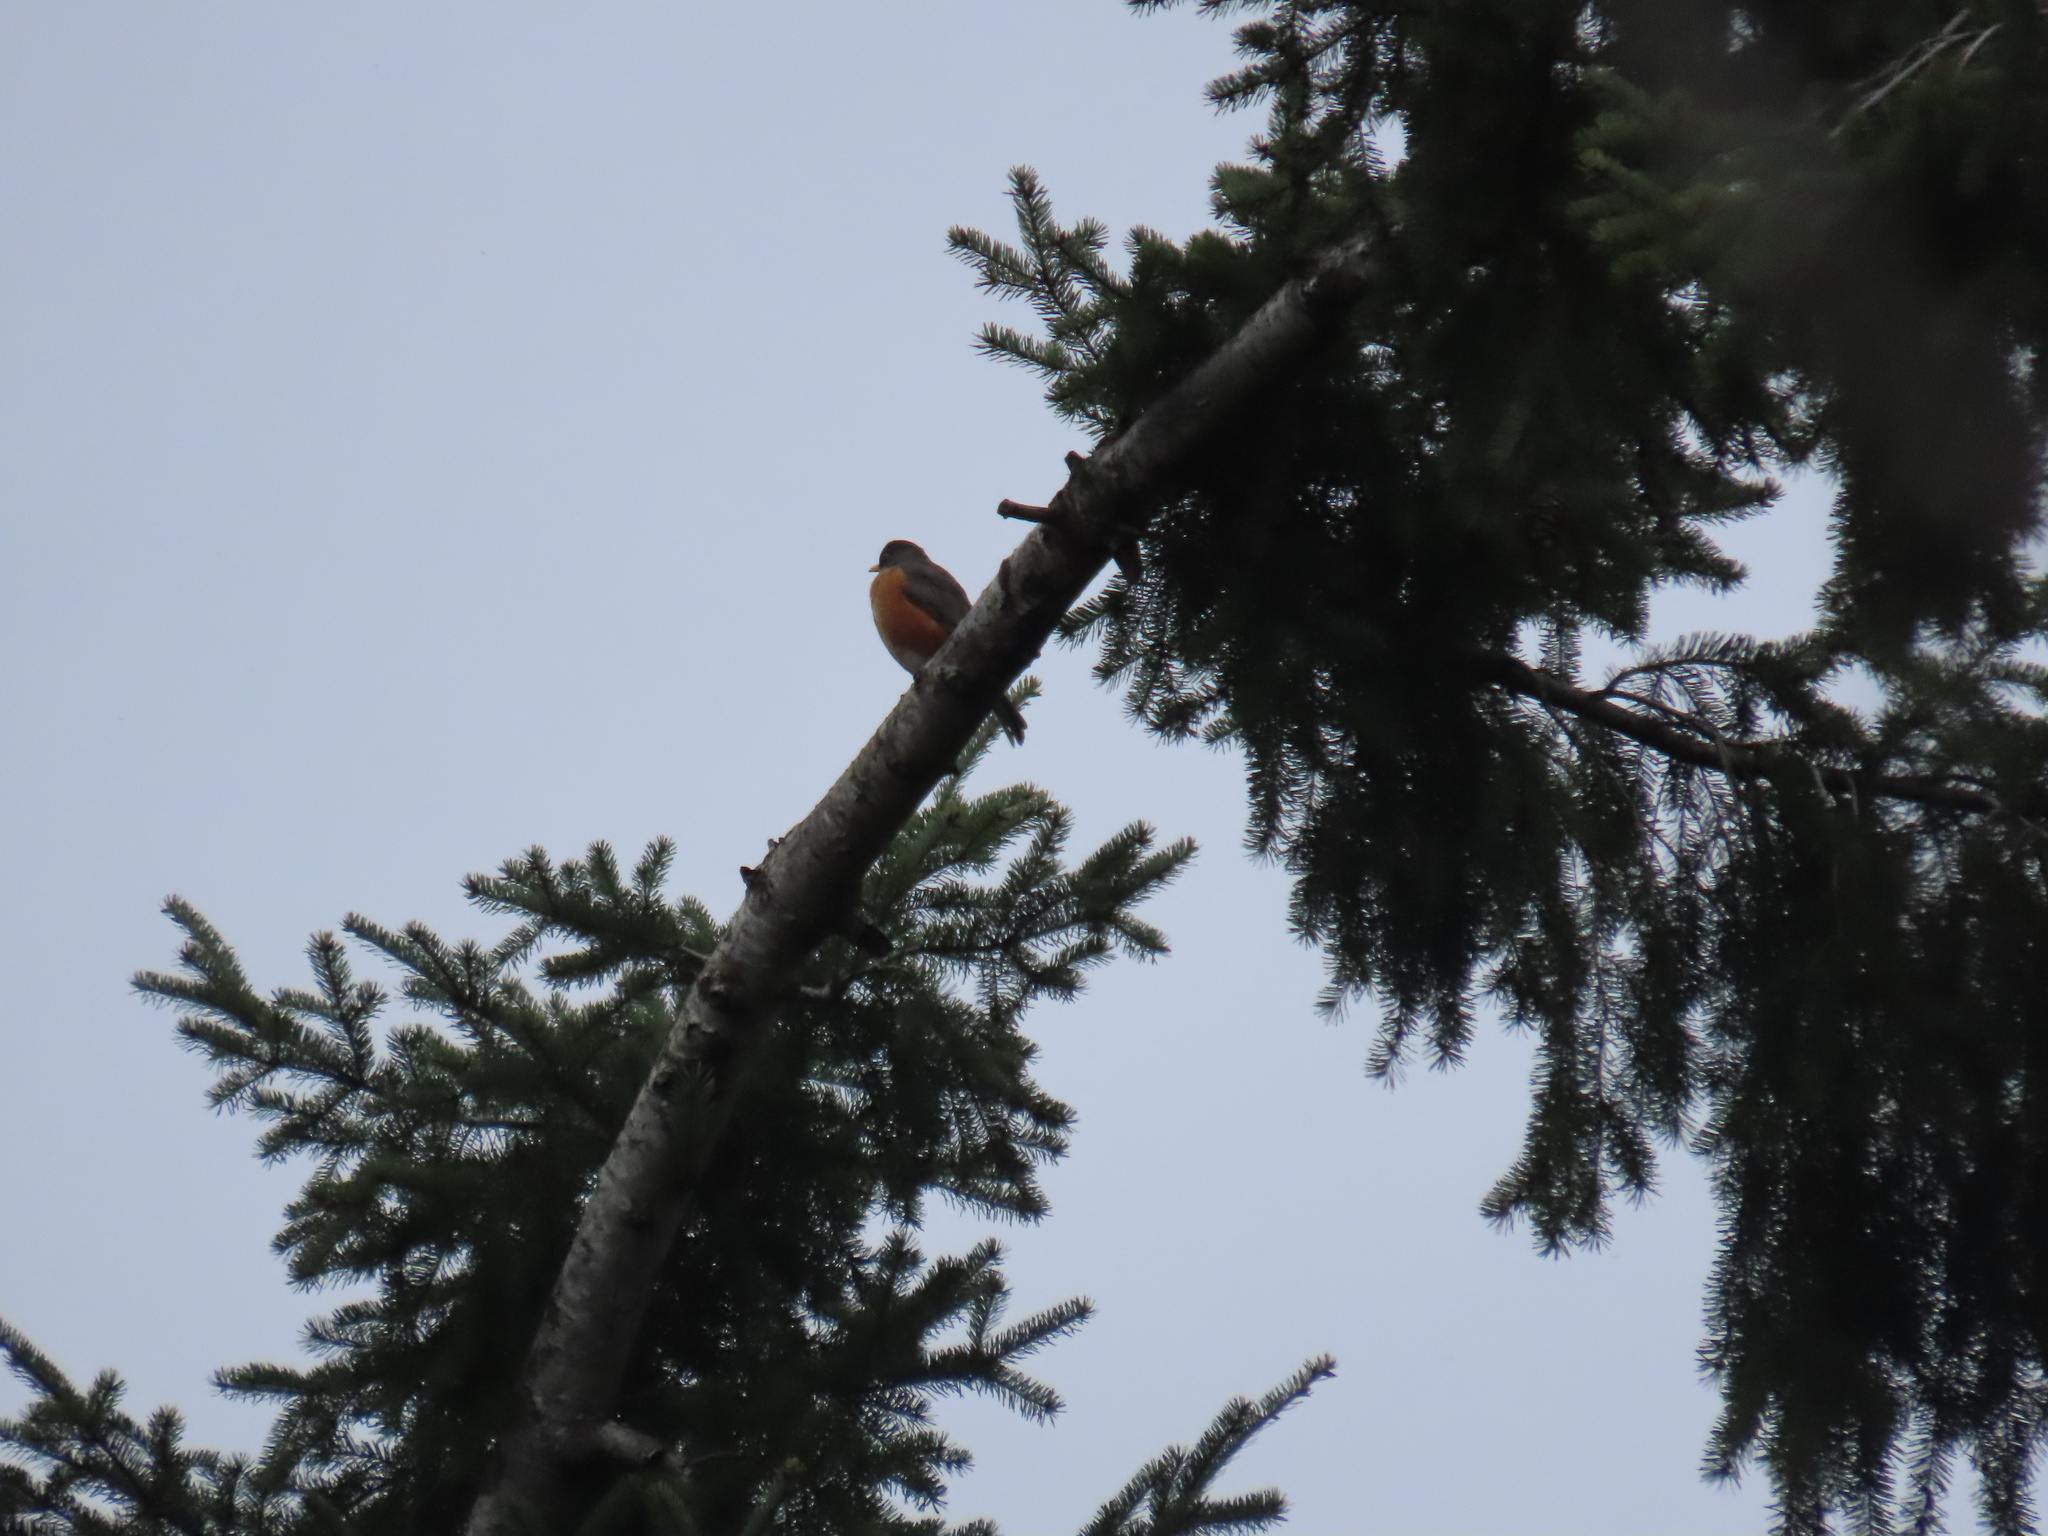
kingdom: Animalia
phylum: Chordata
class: Aves
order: Passeriformes
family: Turdidae
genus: Turdus
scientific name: Turdus migratorius
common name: American robin
